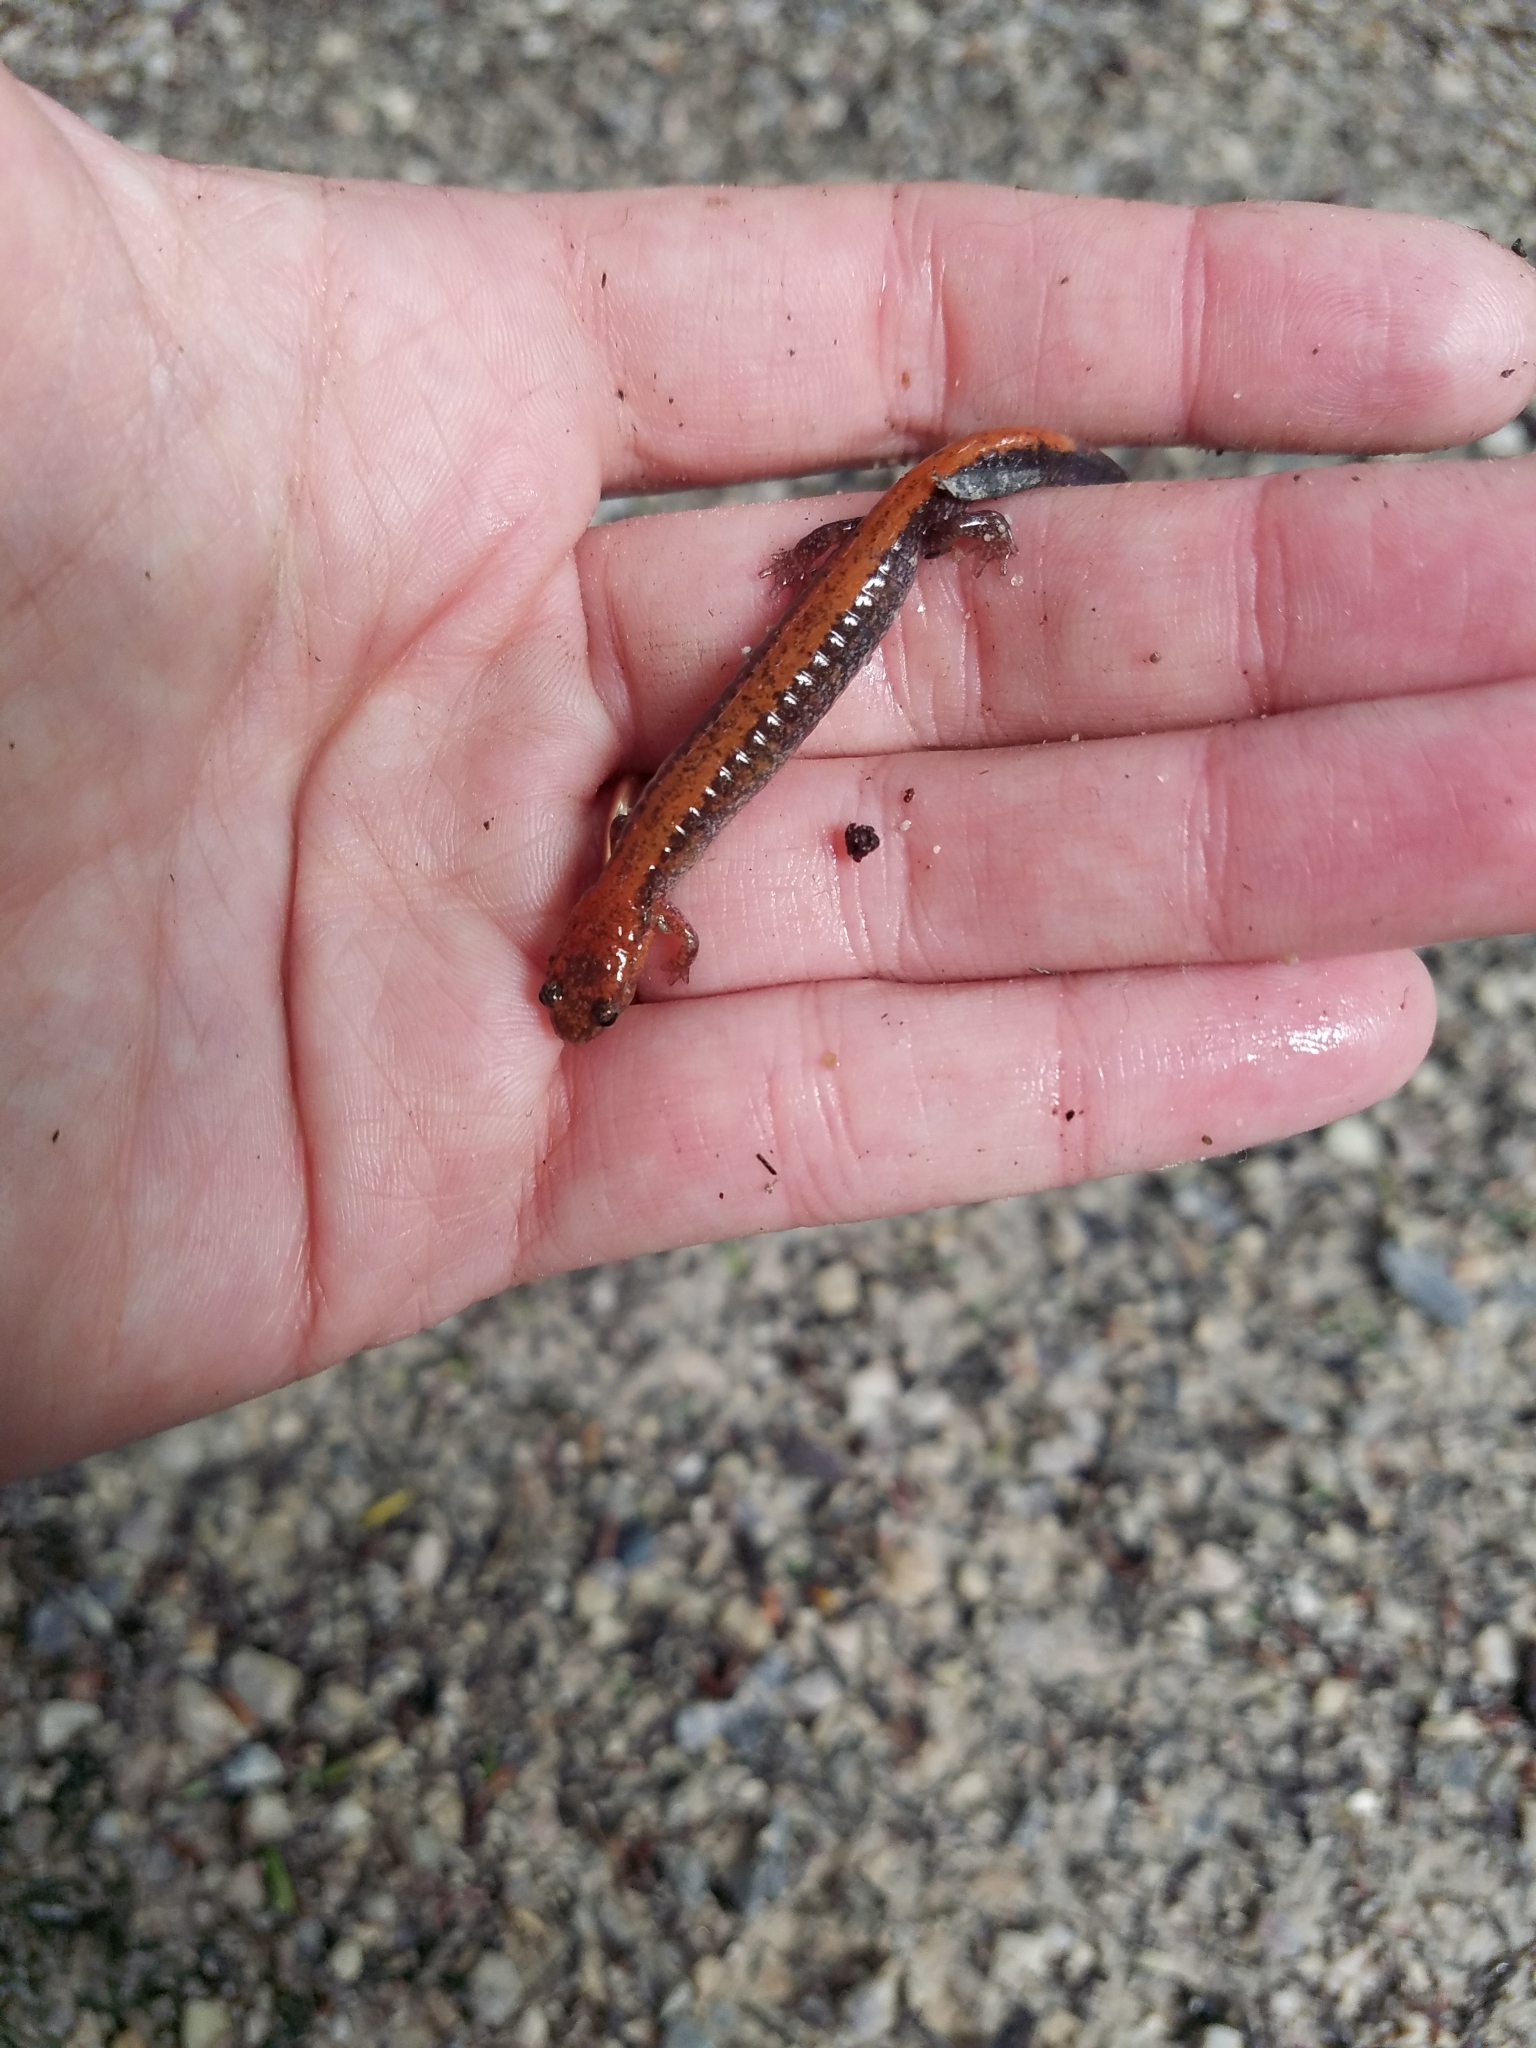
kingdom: Animalia
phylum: Chordata
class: Amphibia
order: Caudata
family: Plethodontidae
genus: Plethodon
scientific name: Plethodon cinereus
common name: Redback salamander
